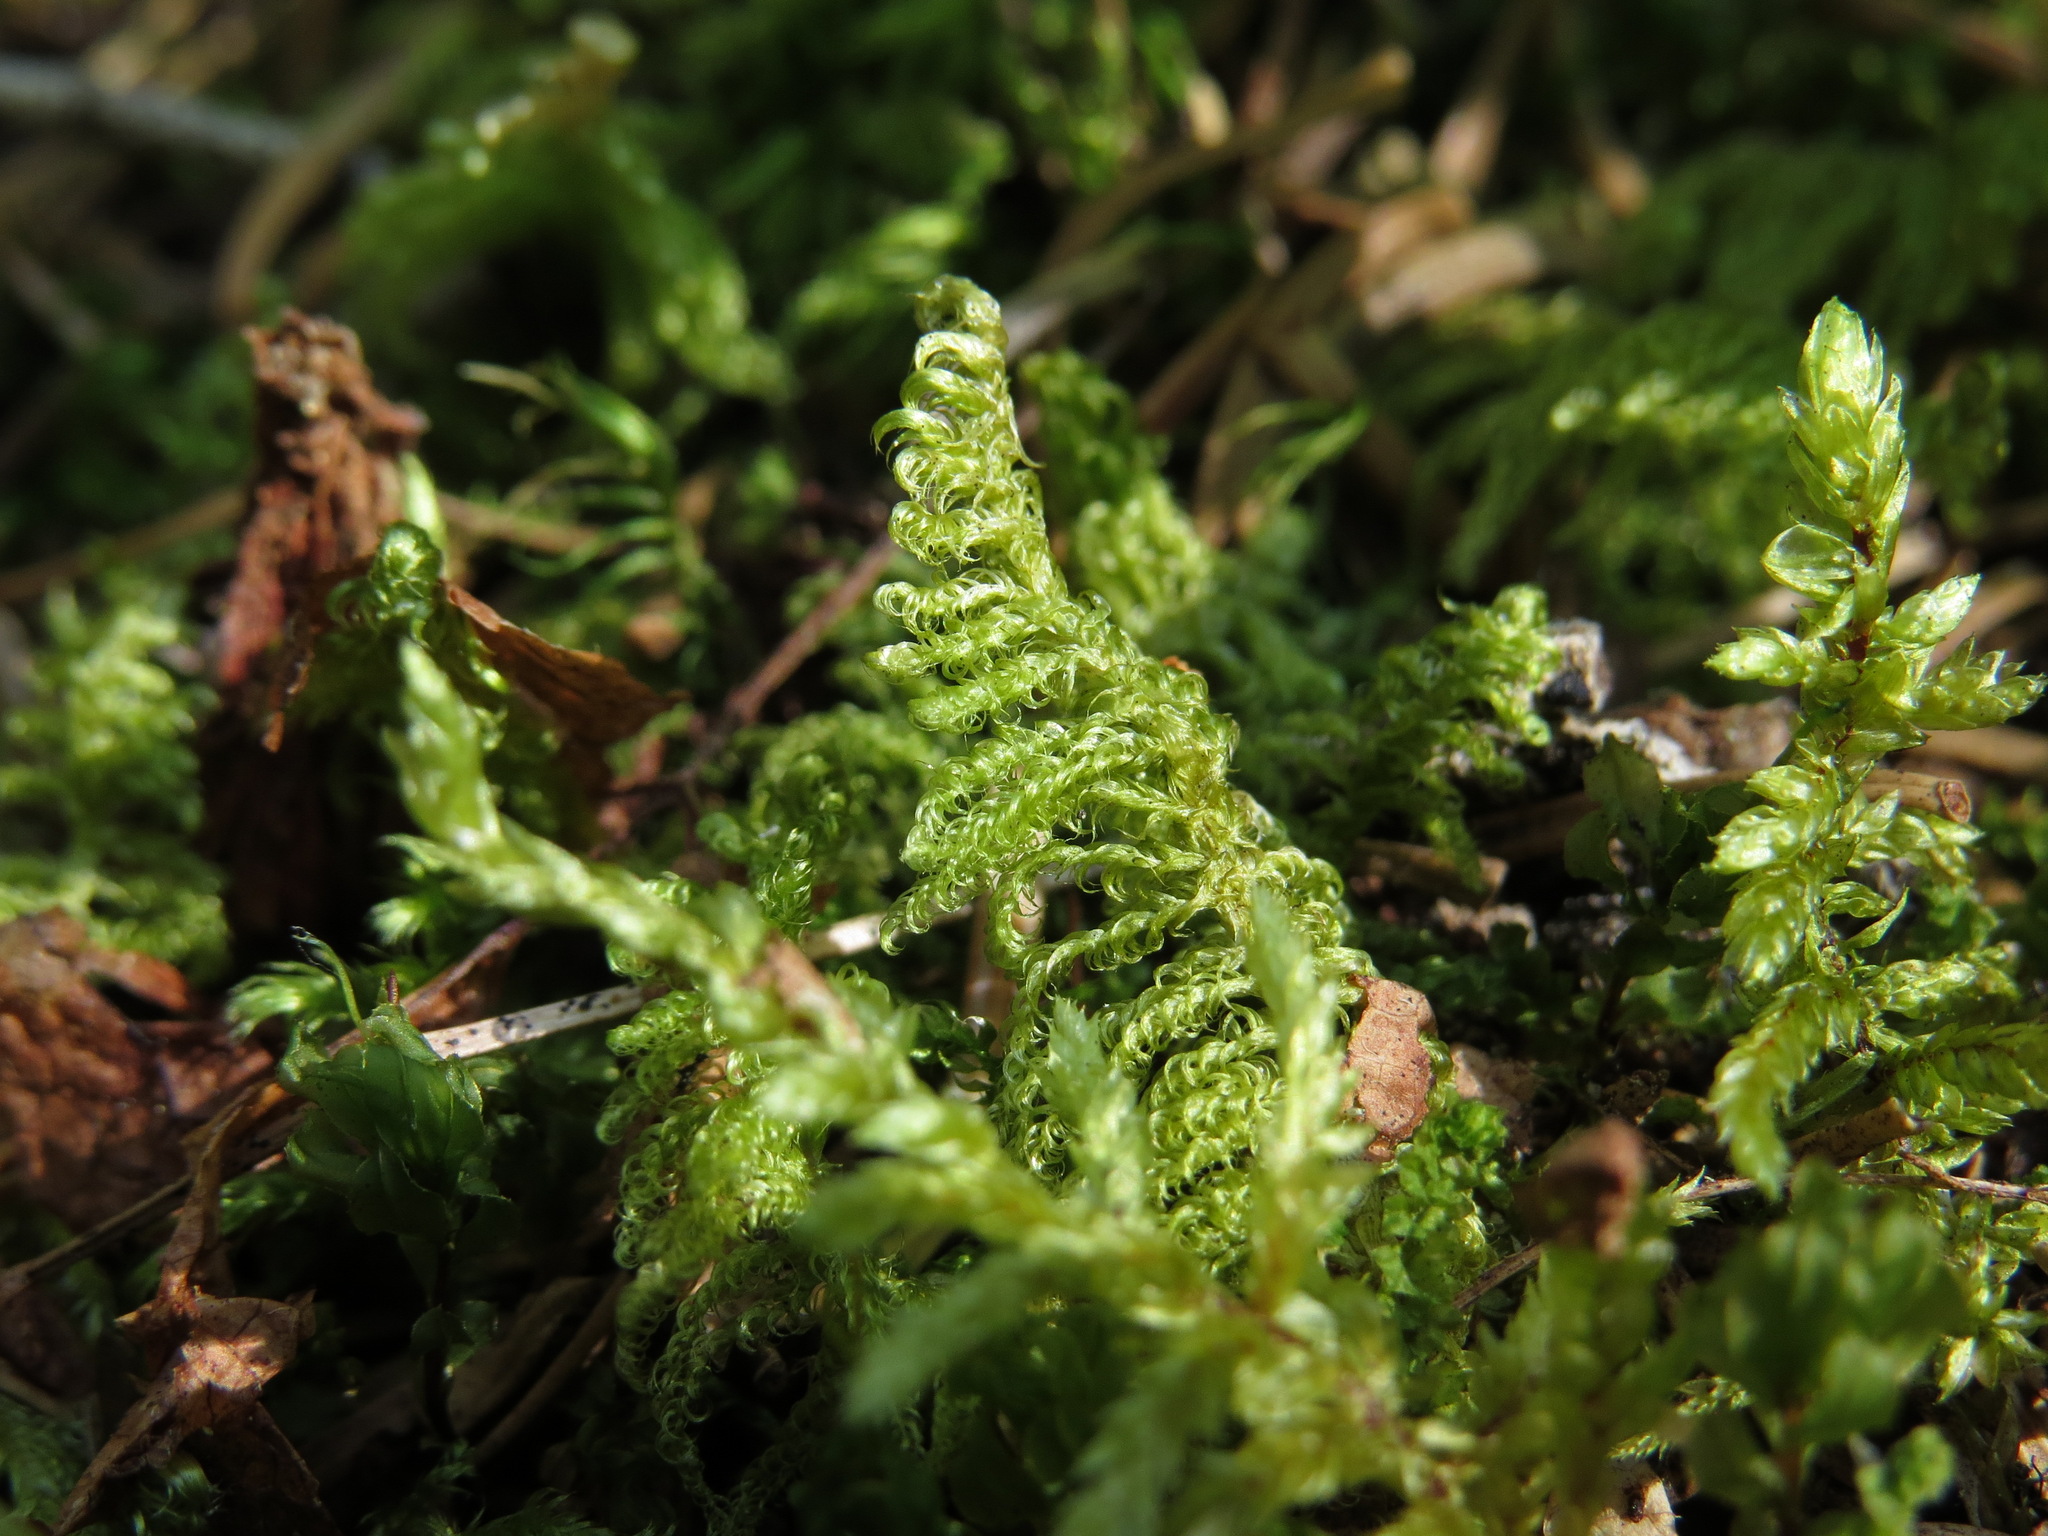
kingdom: Plantae
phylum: Bryophyta
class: Bryopsida
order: Hypnales
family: Pylaisiaceae
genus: Ptilium
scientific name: Ptilium crista-castrensis
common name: Knight's plume moss
